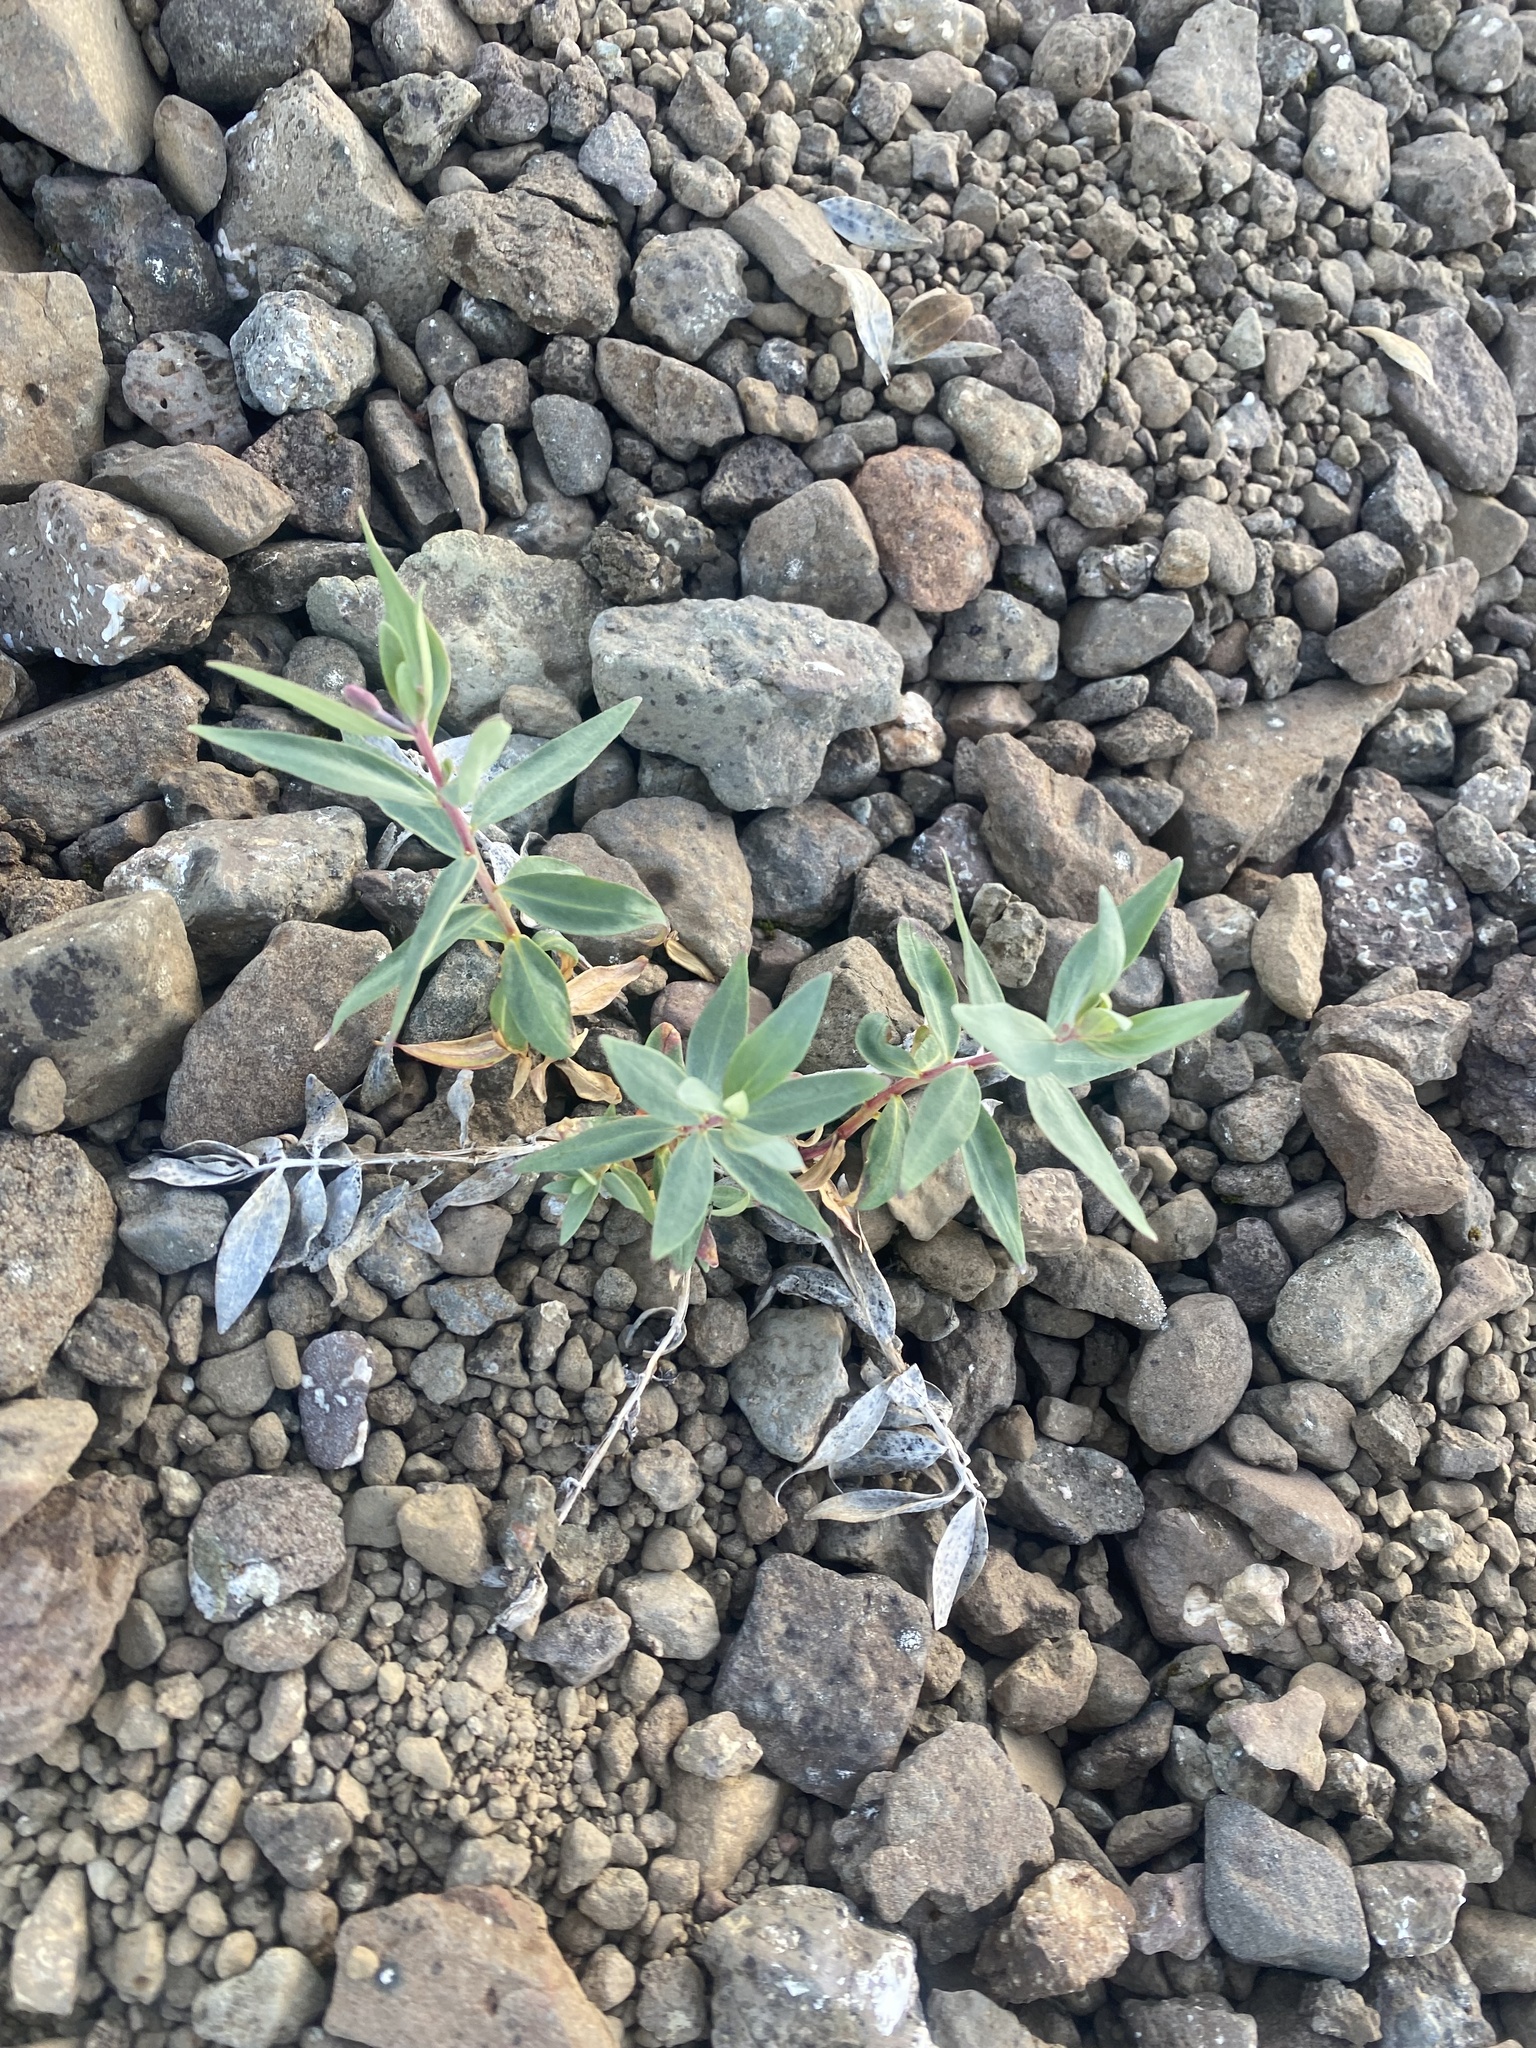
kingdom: Plantae
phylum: Tracheophyta
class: Magnoliopsida
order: Myrtales
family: Onagraceae
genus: Chamaenerion
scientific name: Chamaenerion latifolium
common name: Dwarf fireweed
